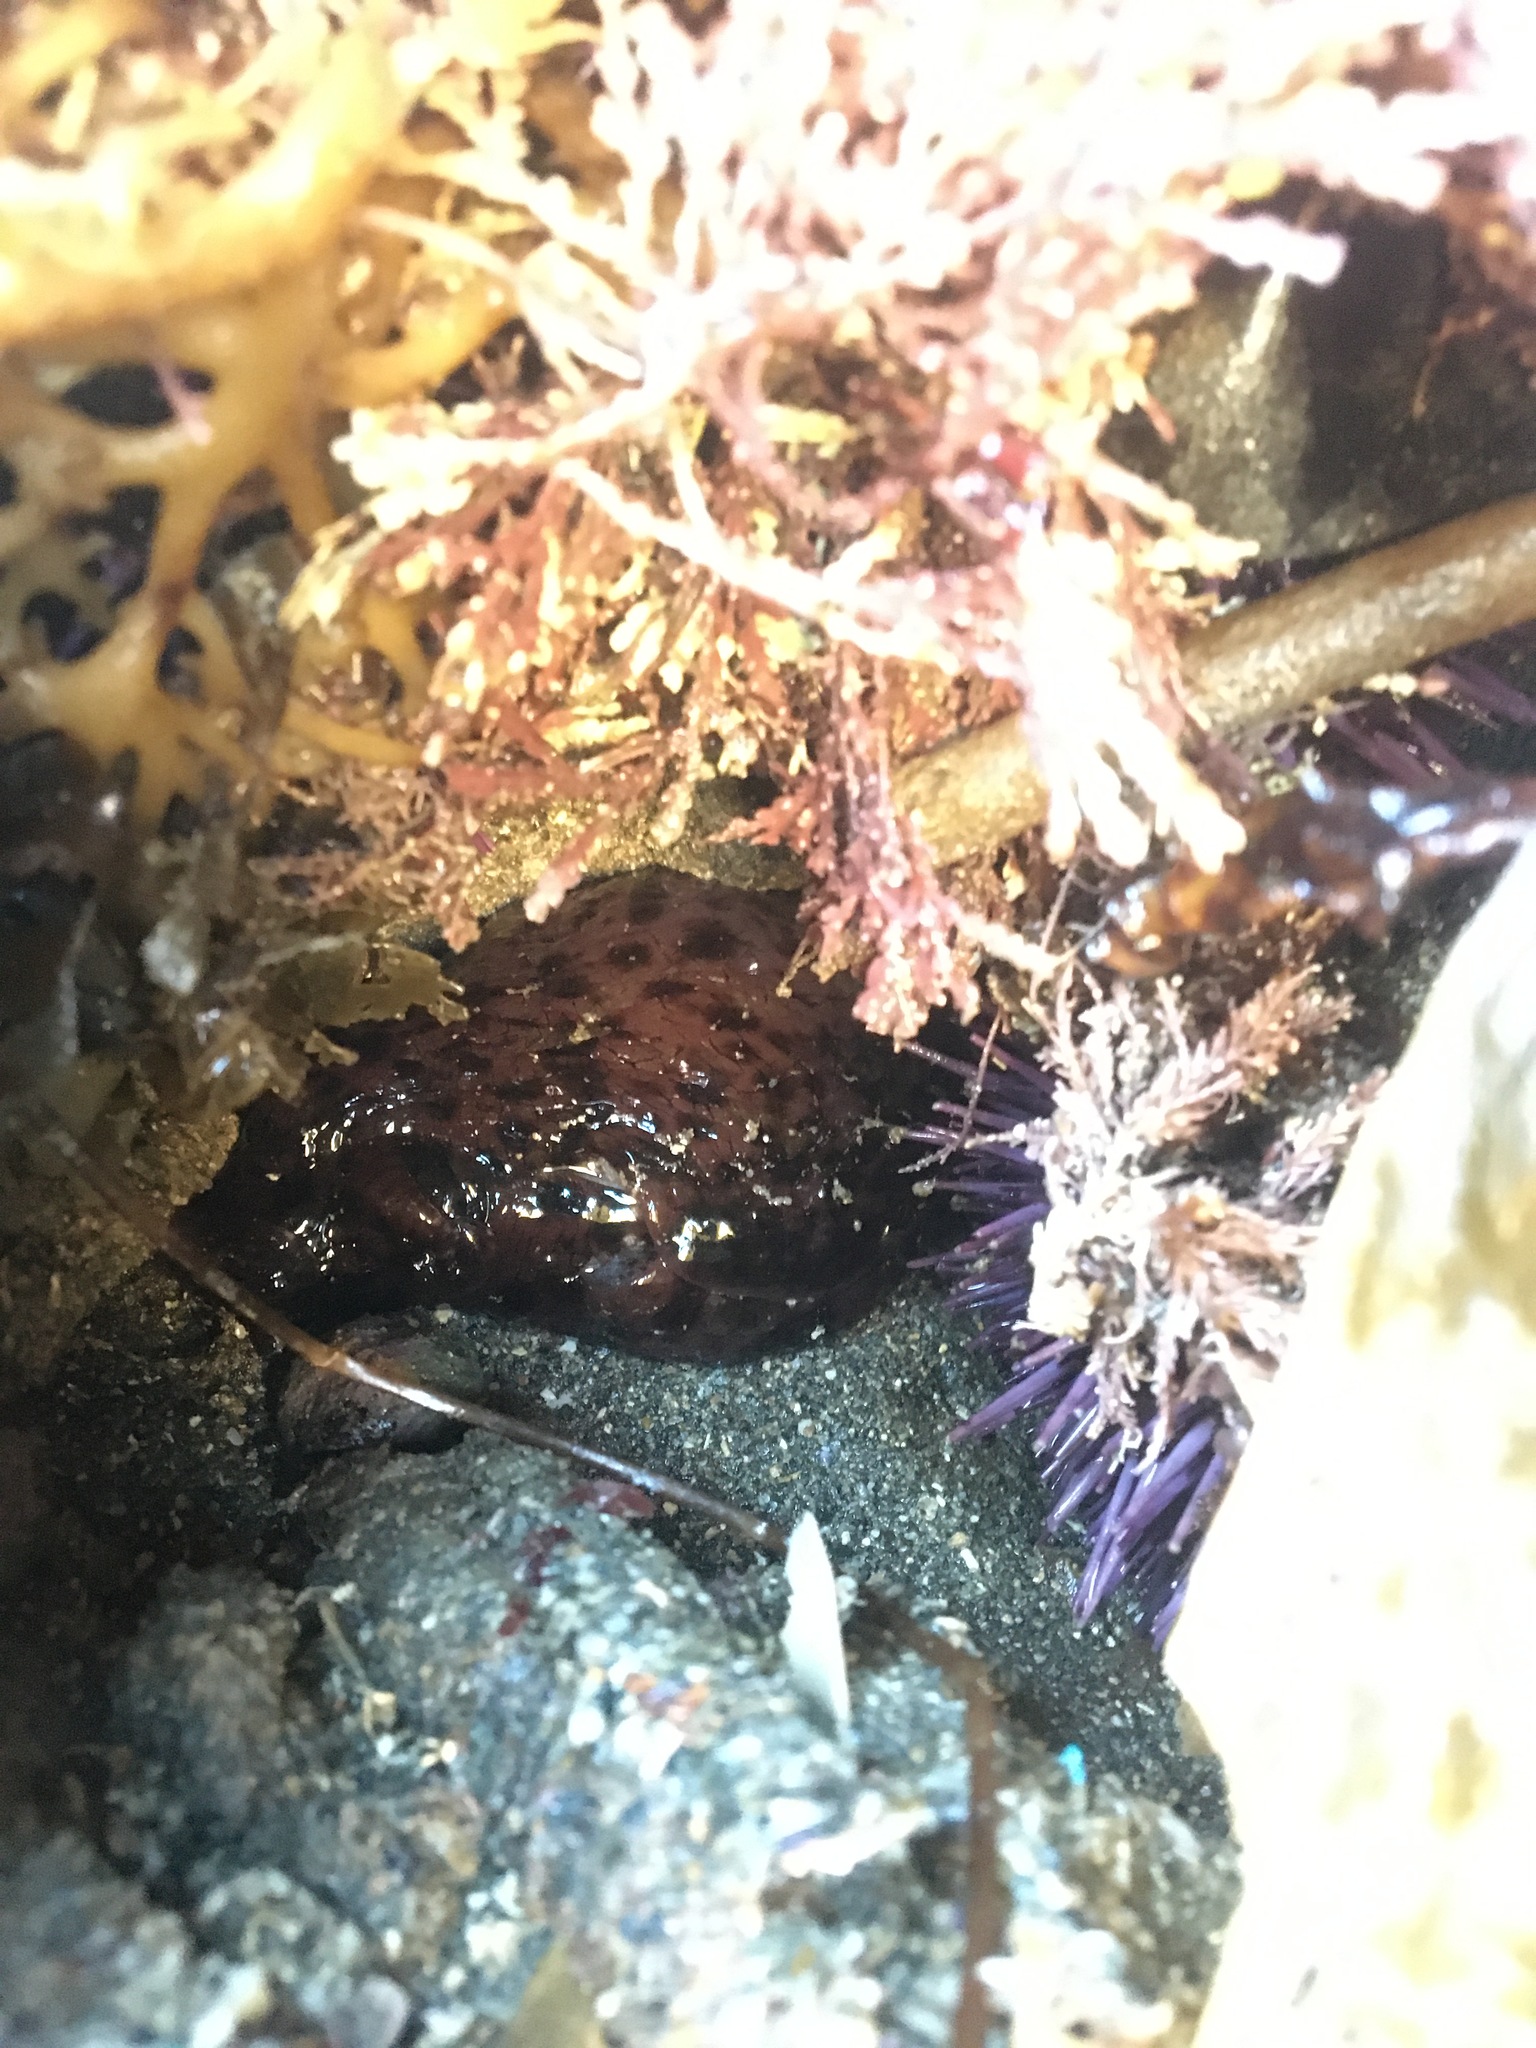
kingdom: Animalia
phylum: Mollusca
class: Gastropoda
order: Aplysiida
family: Aplysiidae
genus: Aplysia
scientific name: Aplysia californica
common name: California seahare
